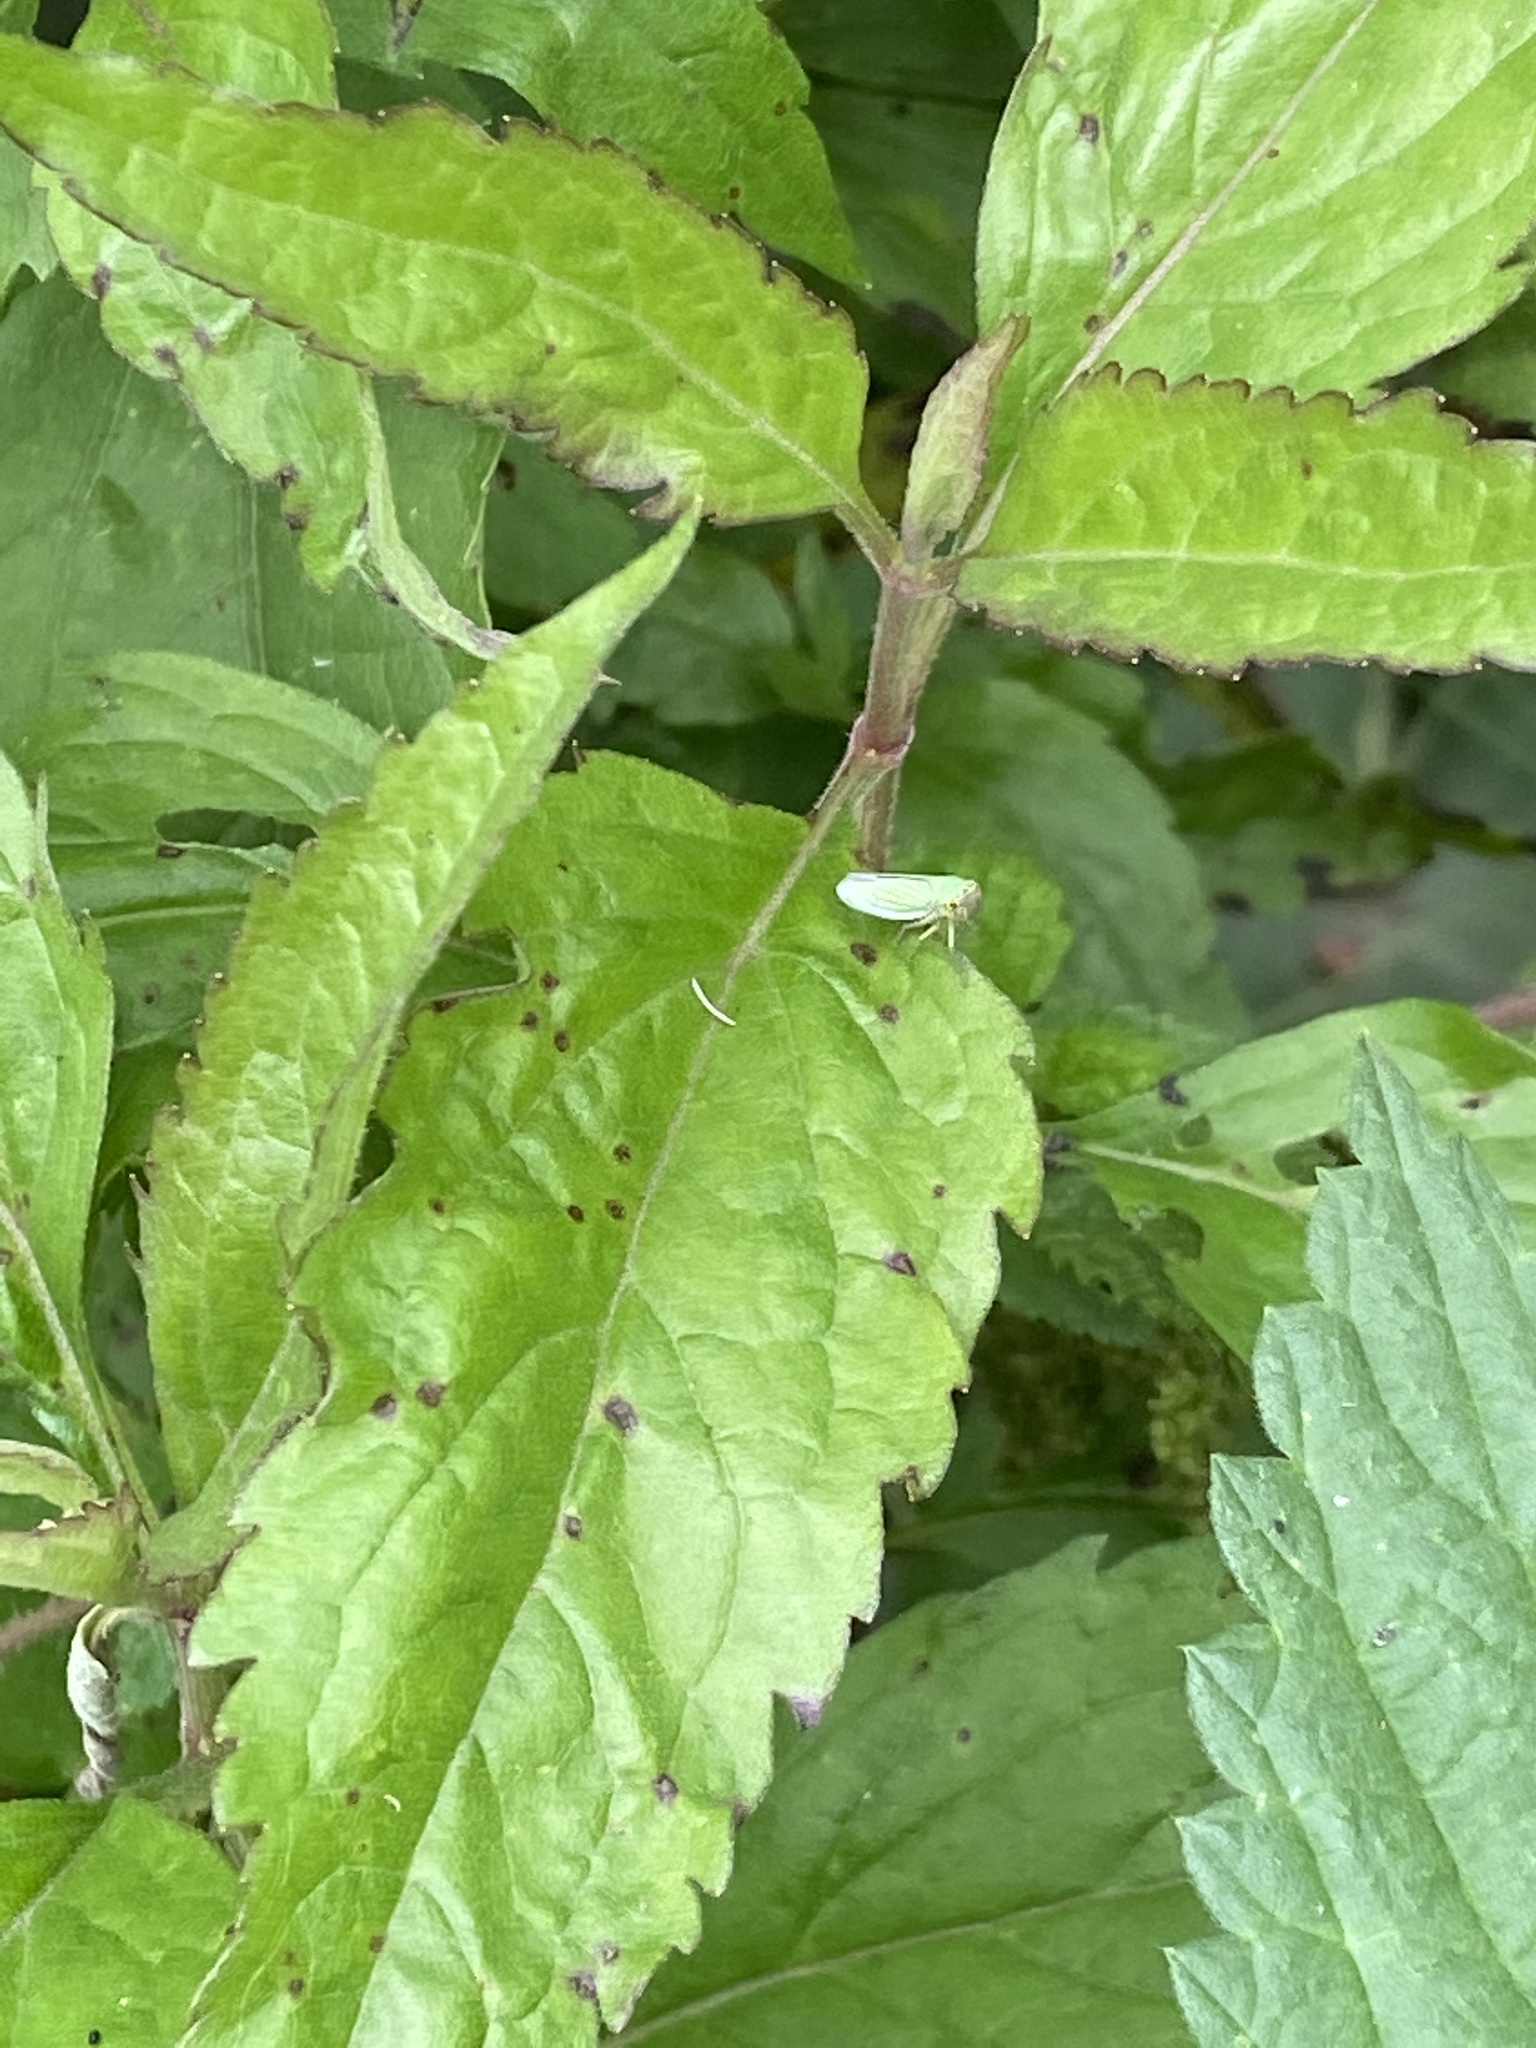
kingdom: Animalia
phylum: Arthropoda
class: Insecta
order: Hemiptera
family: Cicadellidae
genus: Cicadella
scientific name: Cicadella viridis
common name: Leafhopper
